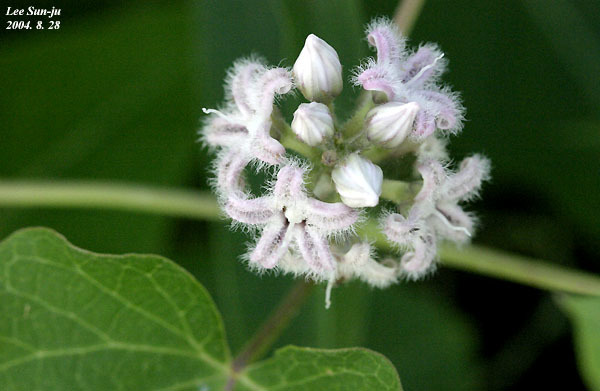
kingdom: Plantae
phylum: Tracheophyta
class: Magnoliopsida
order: Gentianales
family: Apocynaceae
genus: Cynanchum
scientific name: Cynanchum rostellatum
